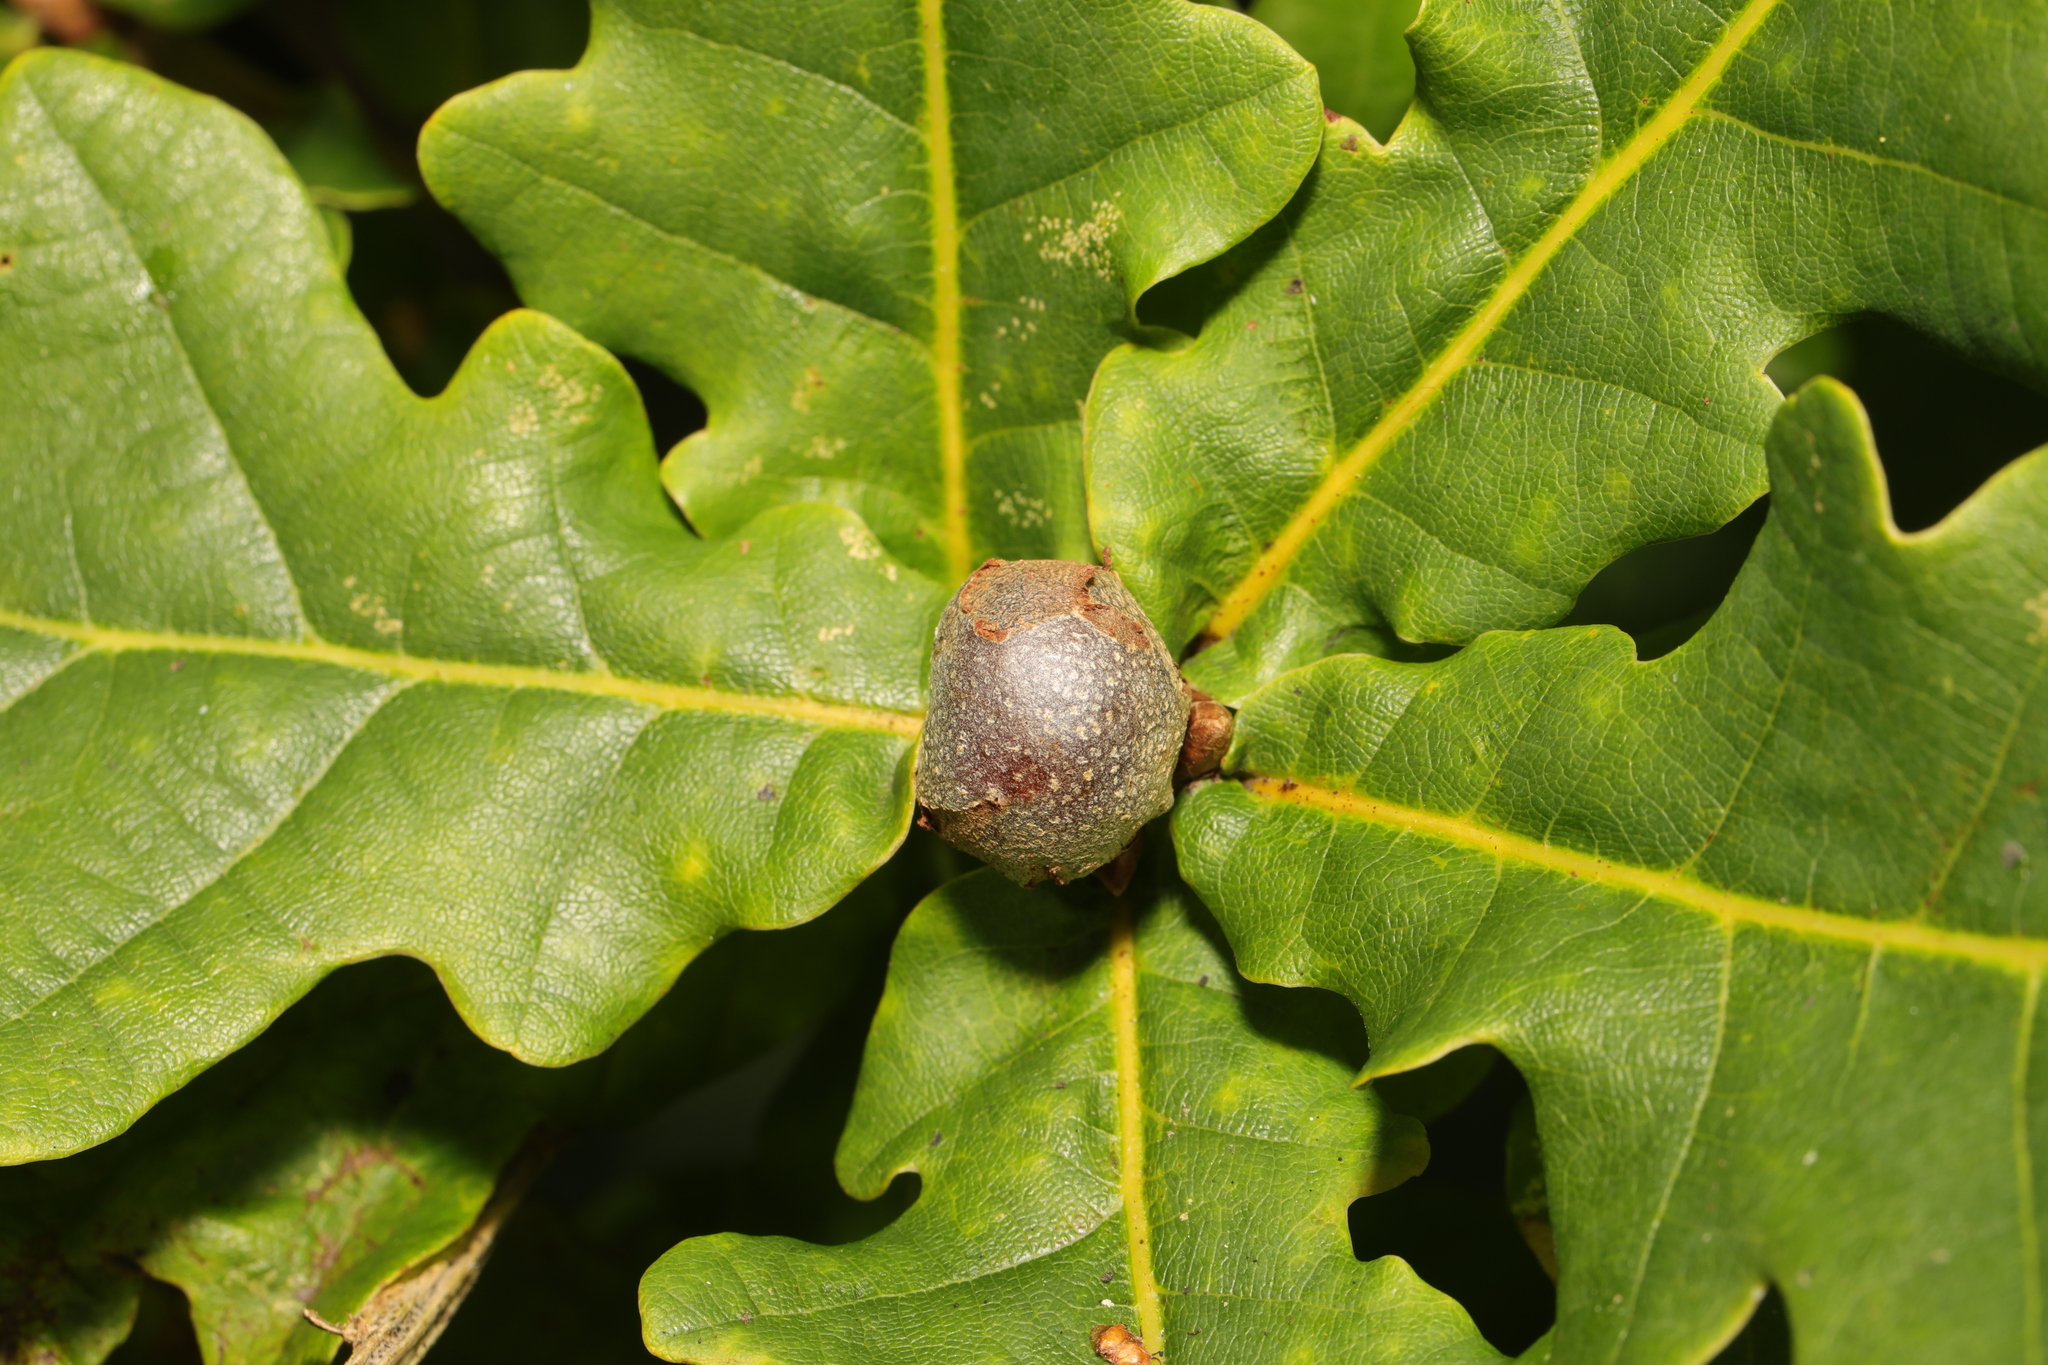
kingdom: Animalia
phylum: Arthropoda
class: Insecta
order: Hymenoptera
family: Cynipidae
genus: Andricus
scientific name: Andricus lignicolus
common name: Cola-nut gall
